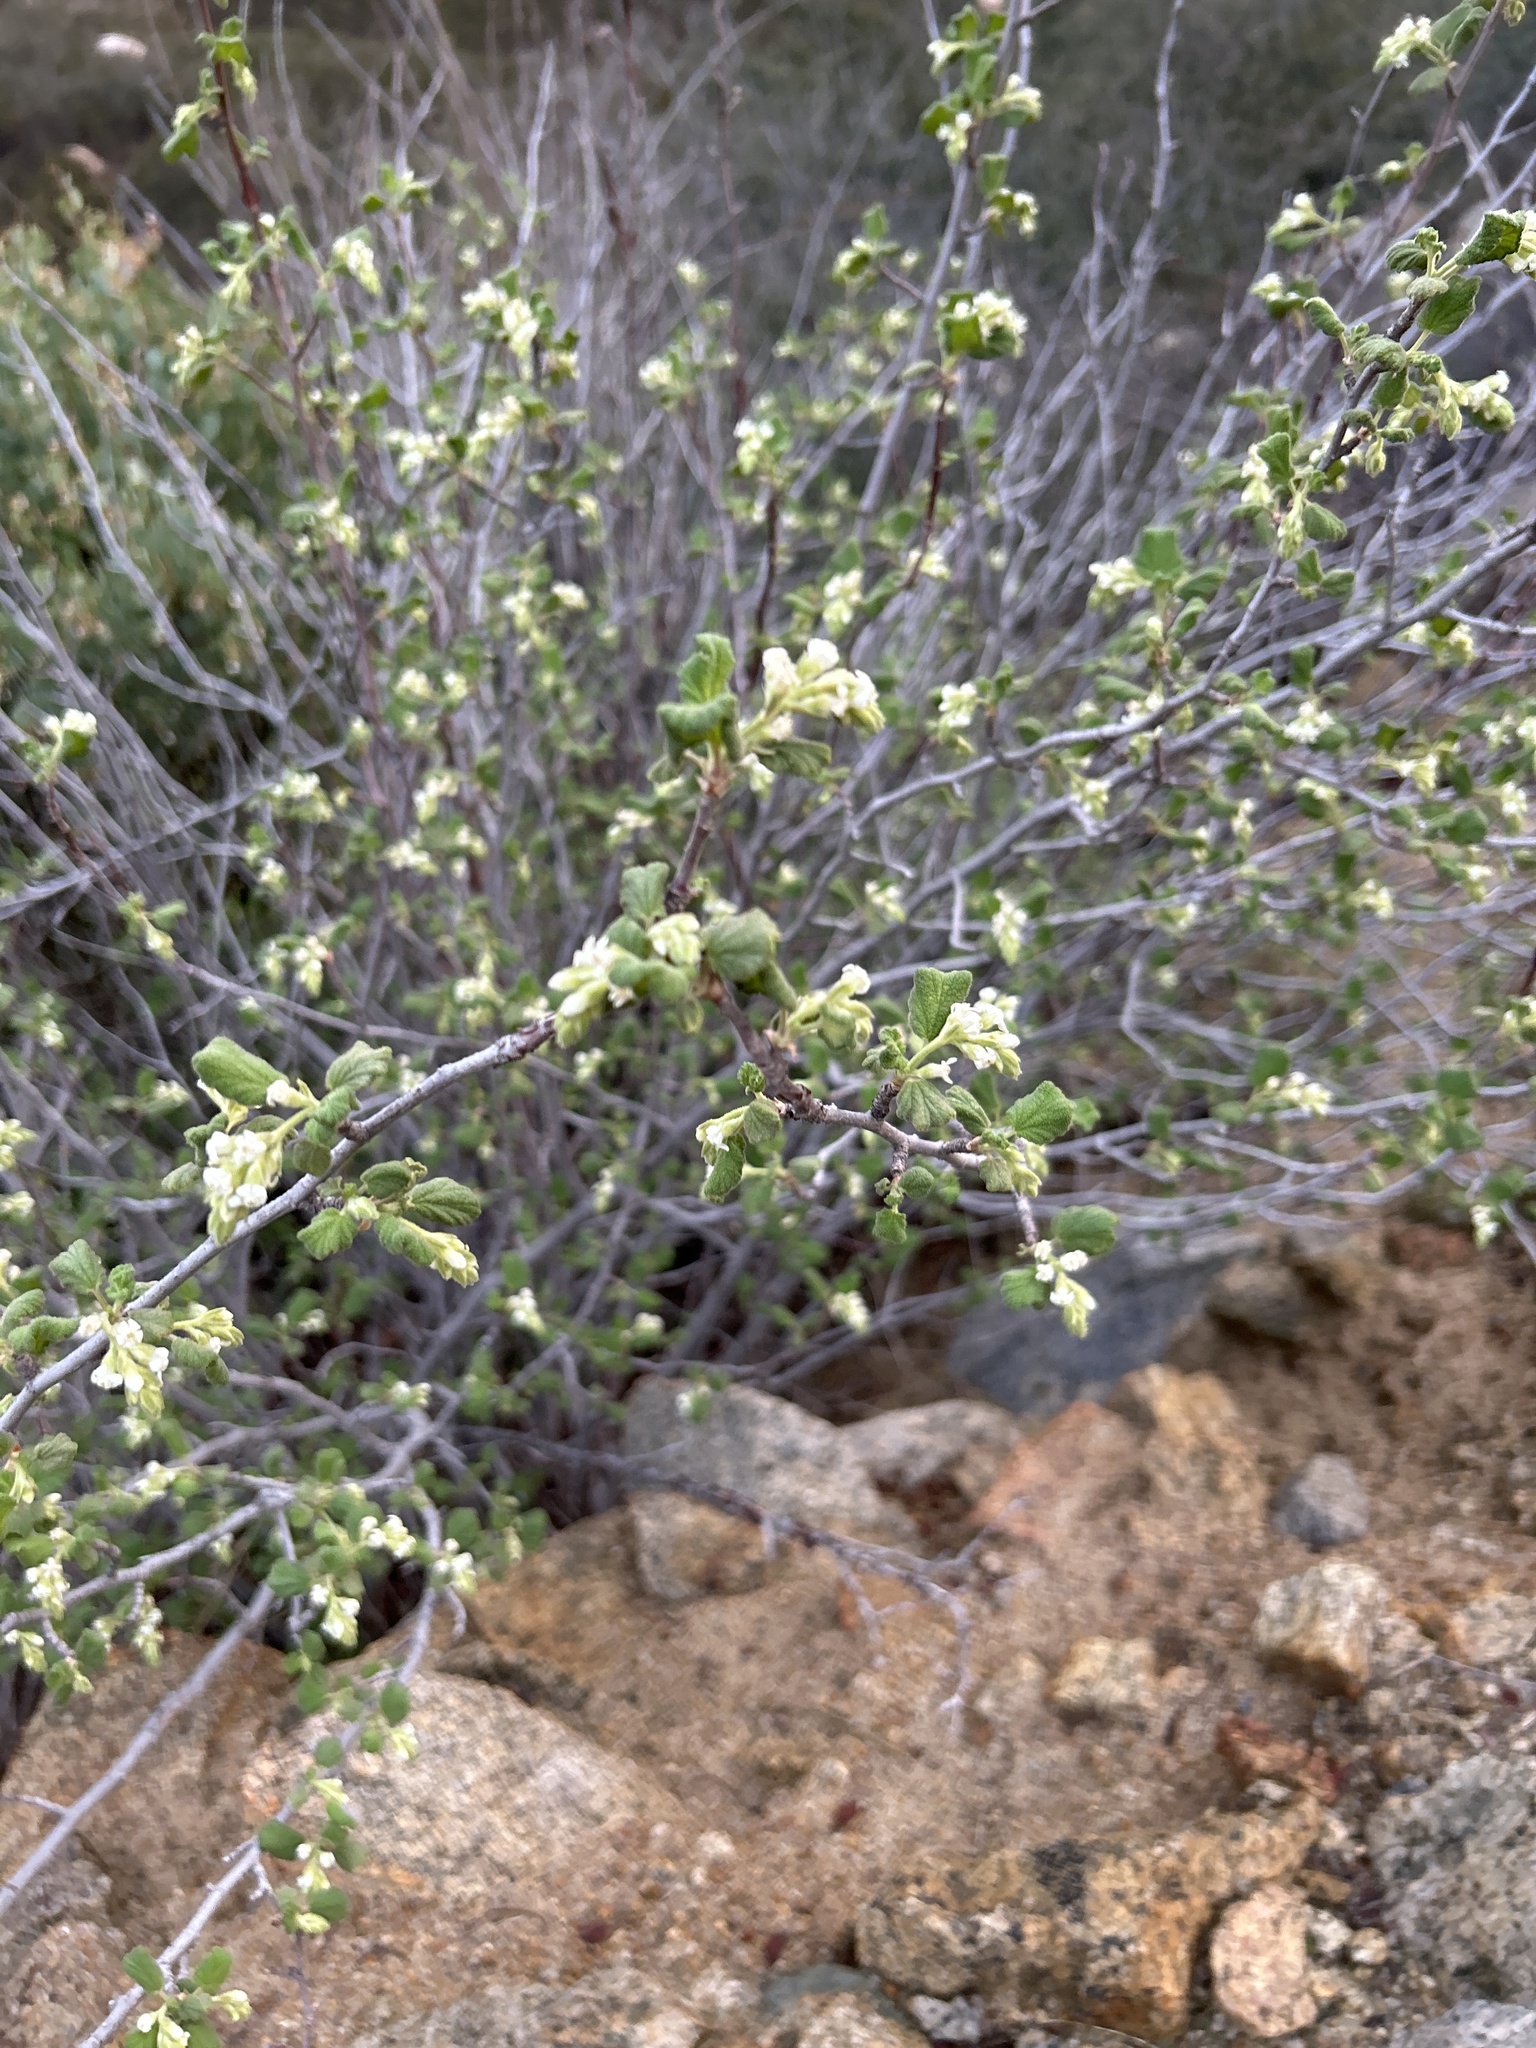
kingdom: Plantae
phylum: Tracheophyta
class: Magnoliopsida
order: Saxifragales
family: Grossulariaceae
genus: Ribes
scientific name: Ribes indecorum
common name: White-flower currant
